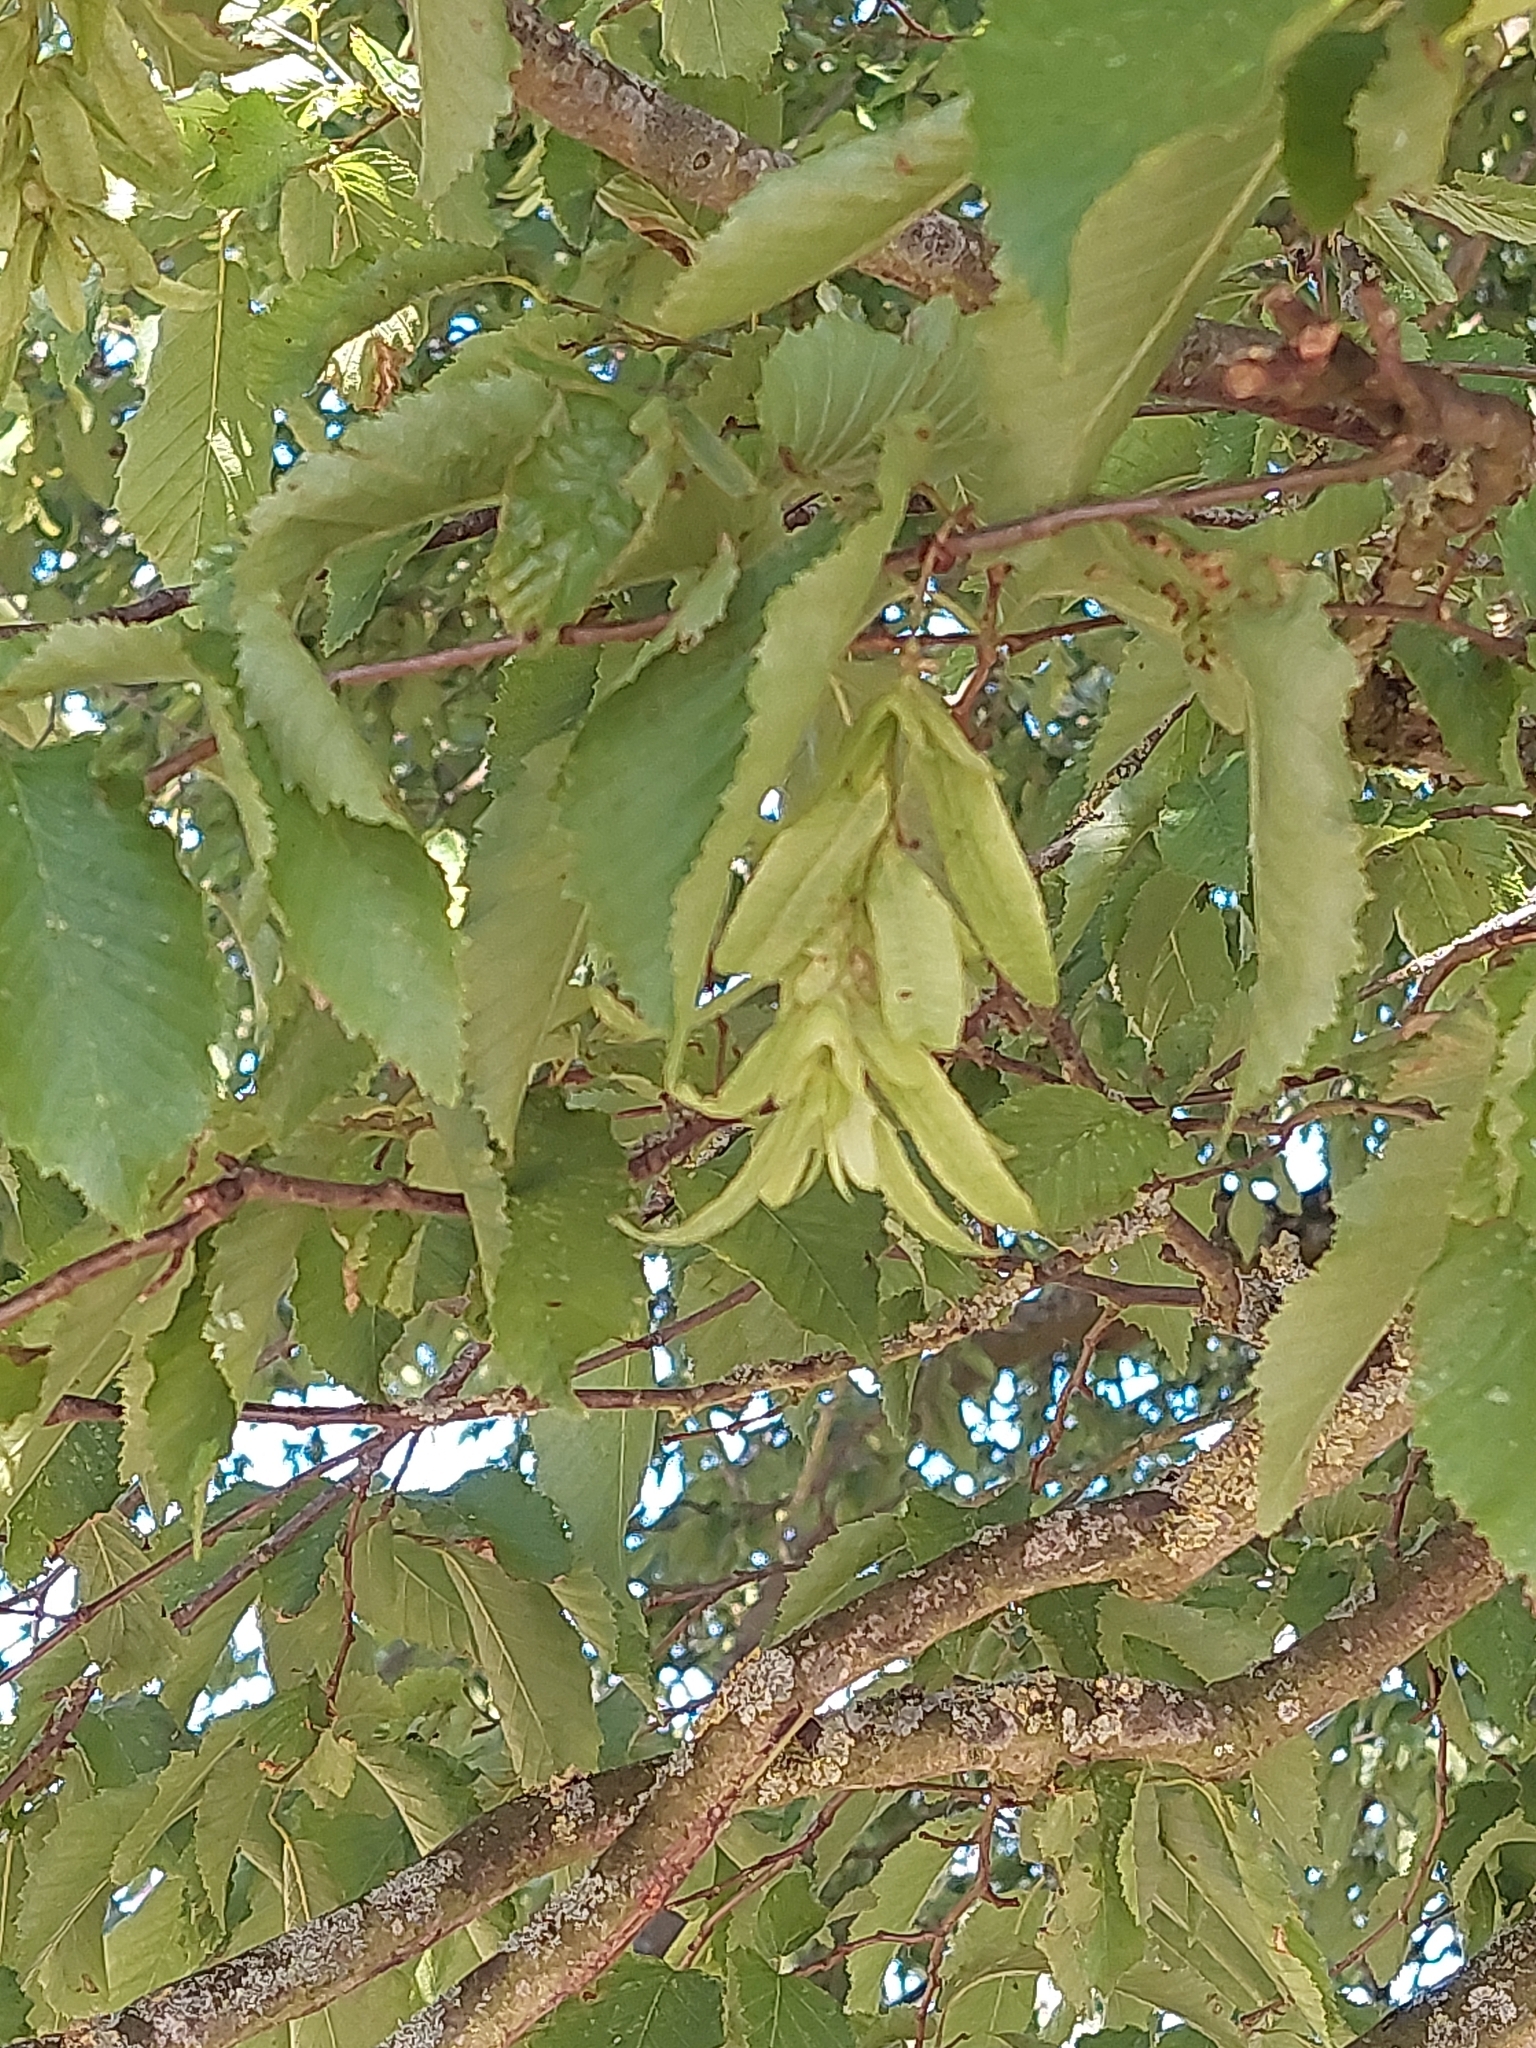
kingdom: Plantae
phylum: Tracheophyta
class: Magnoliopsida
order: Fagales
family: Betulaceae
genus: Carpinus
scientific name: Carpinus betulus
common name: Hornbeam
